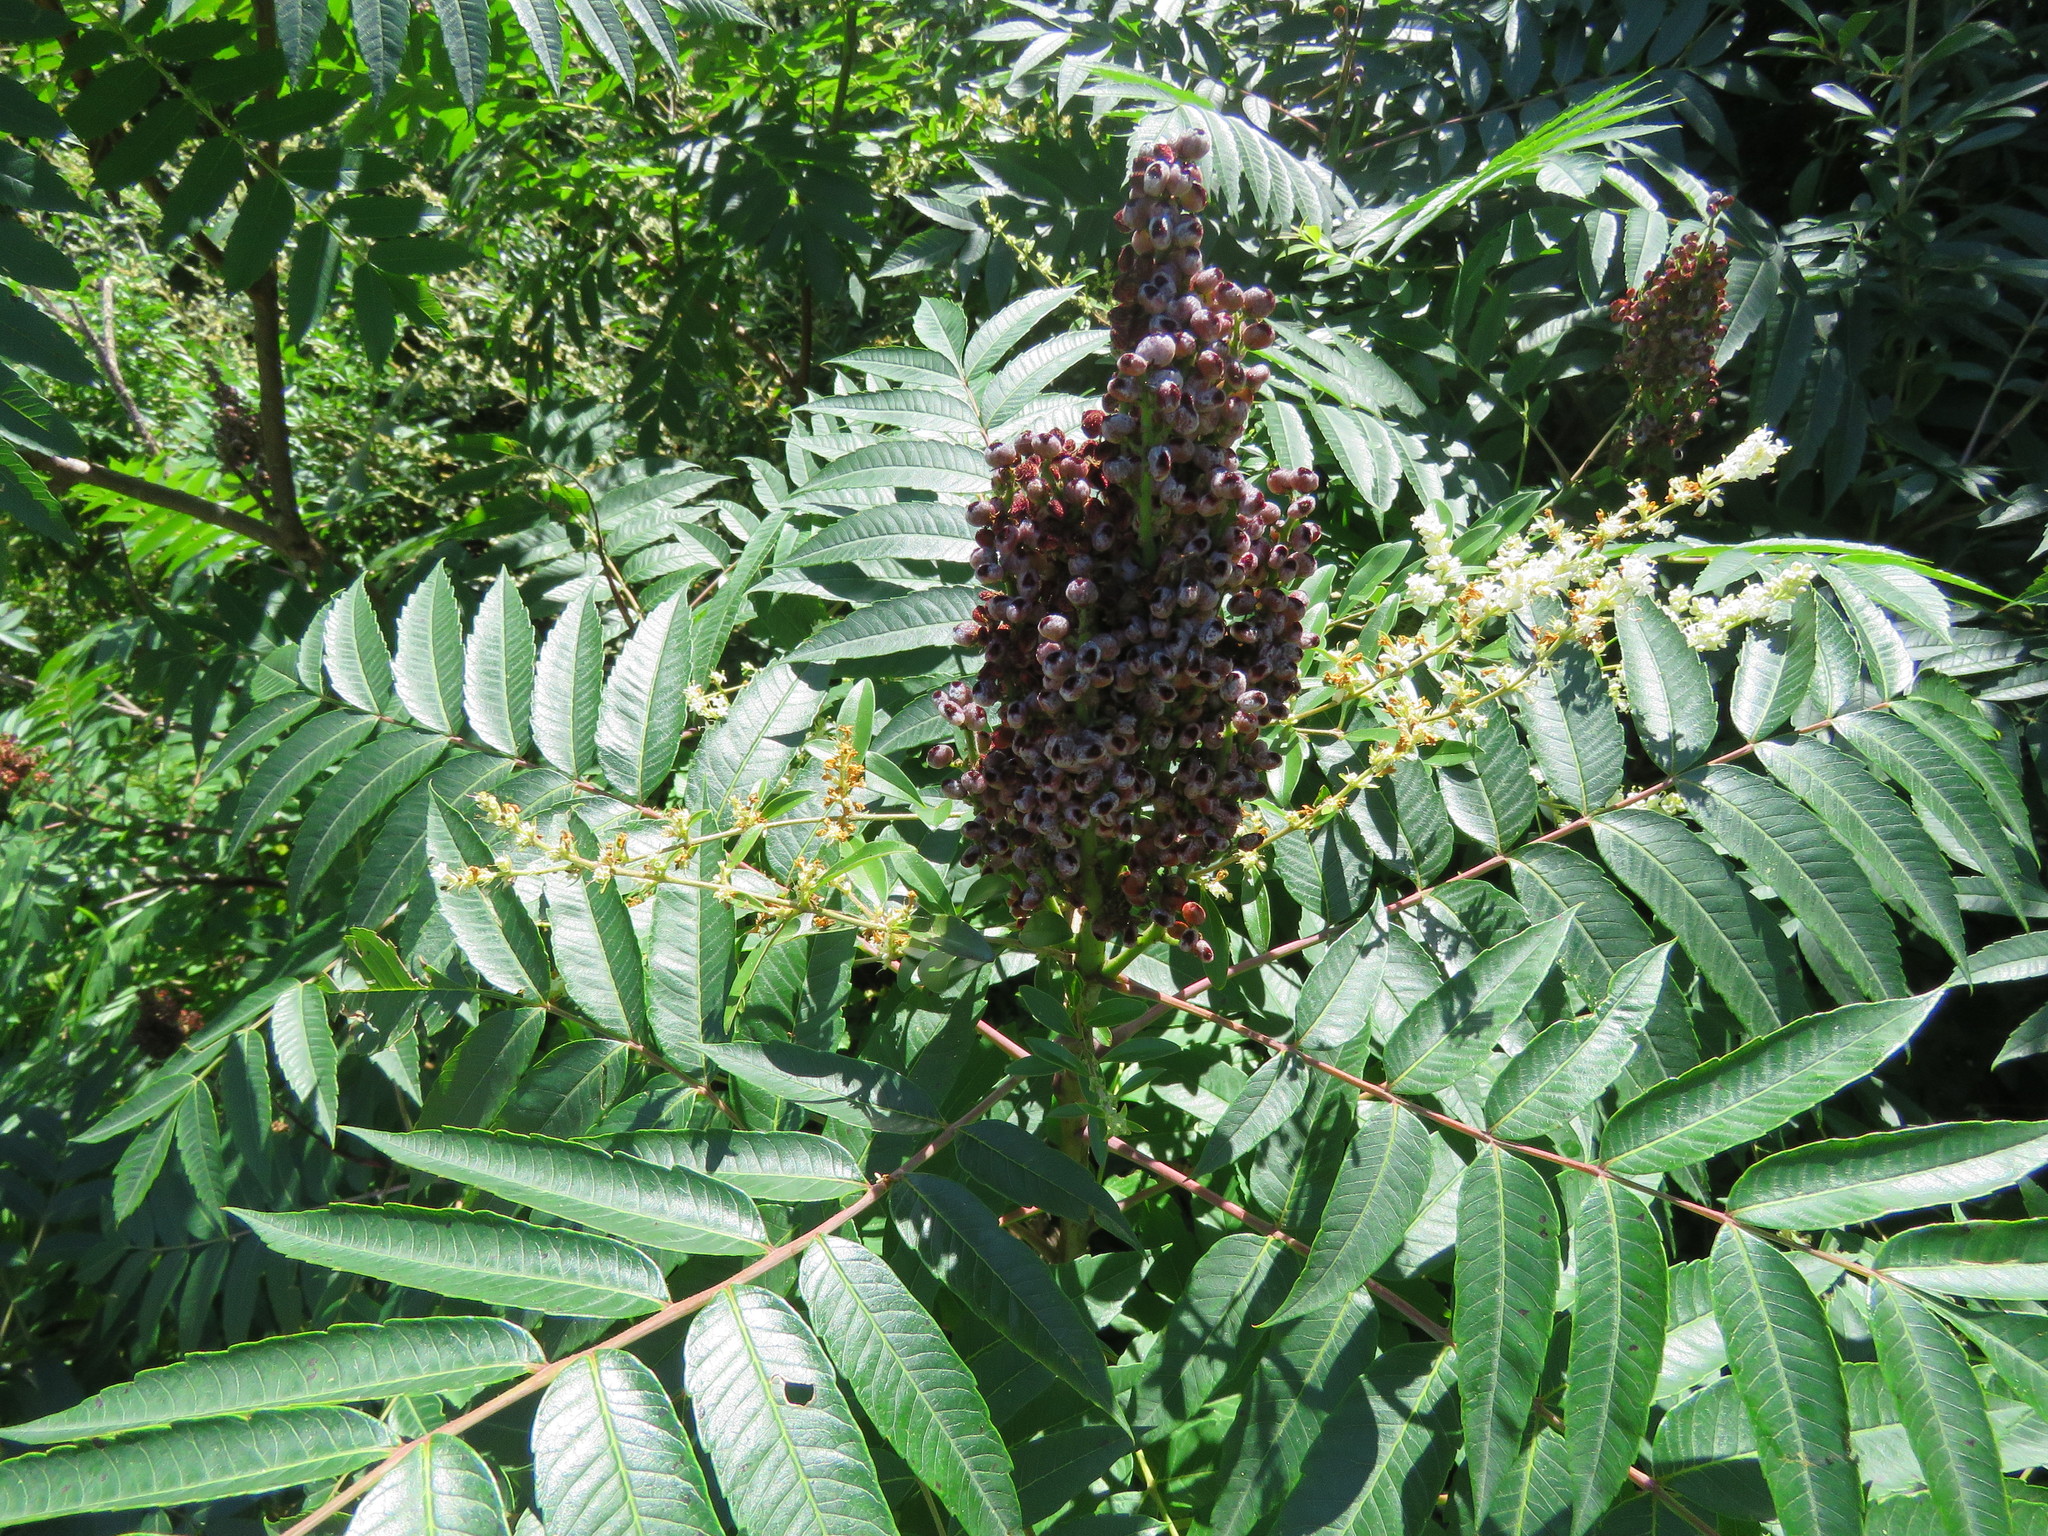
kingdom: Plantae
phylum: Tracheophyta
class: Magnoliopsida
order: Sapindales
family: Anacardiaceae
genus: Rhus
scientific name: Rhus glabra
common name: Scarlet sumac
